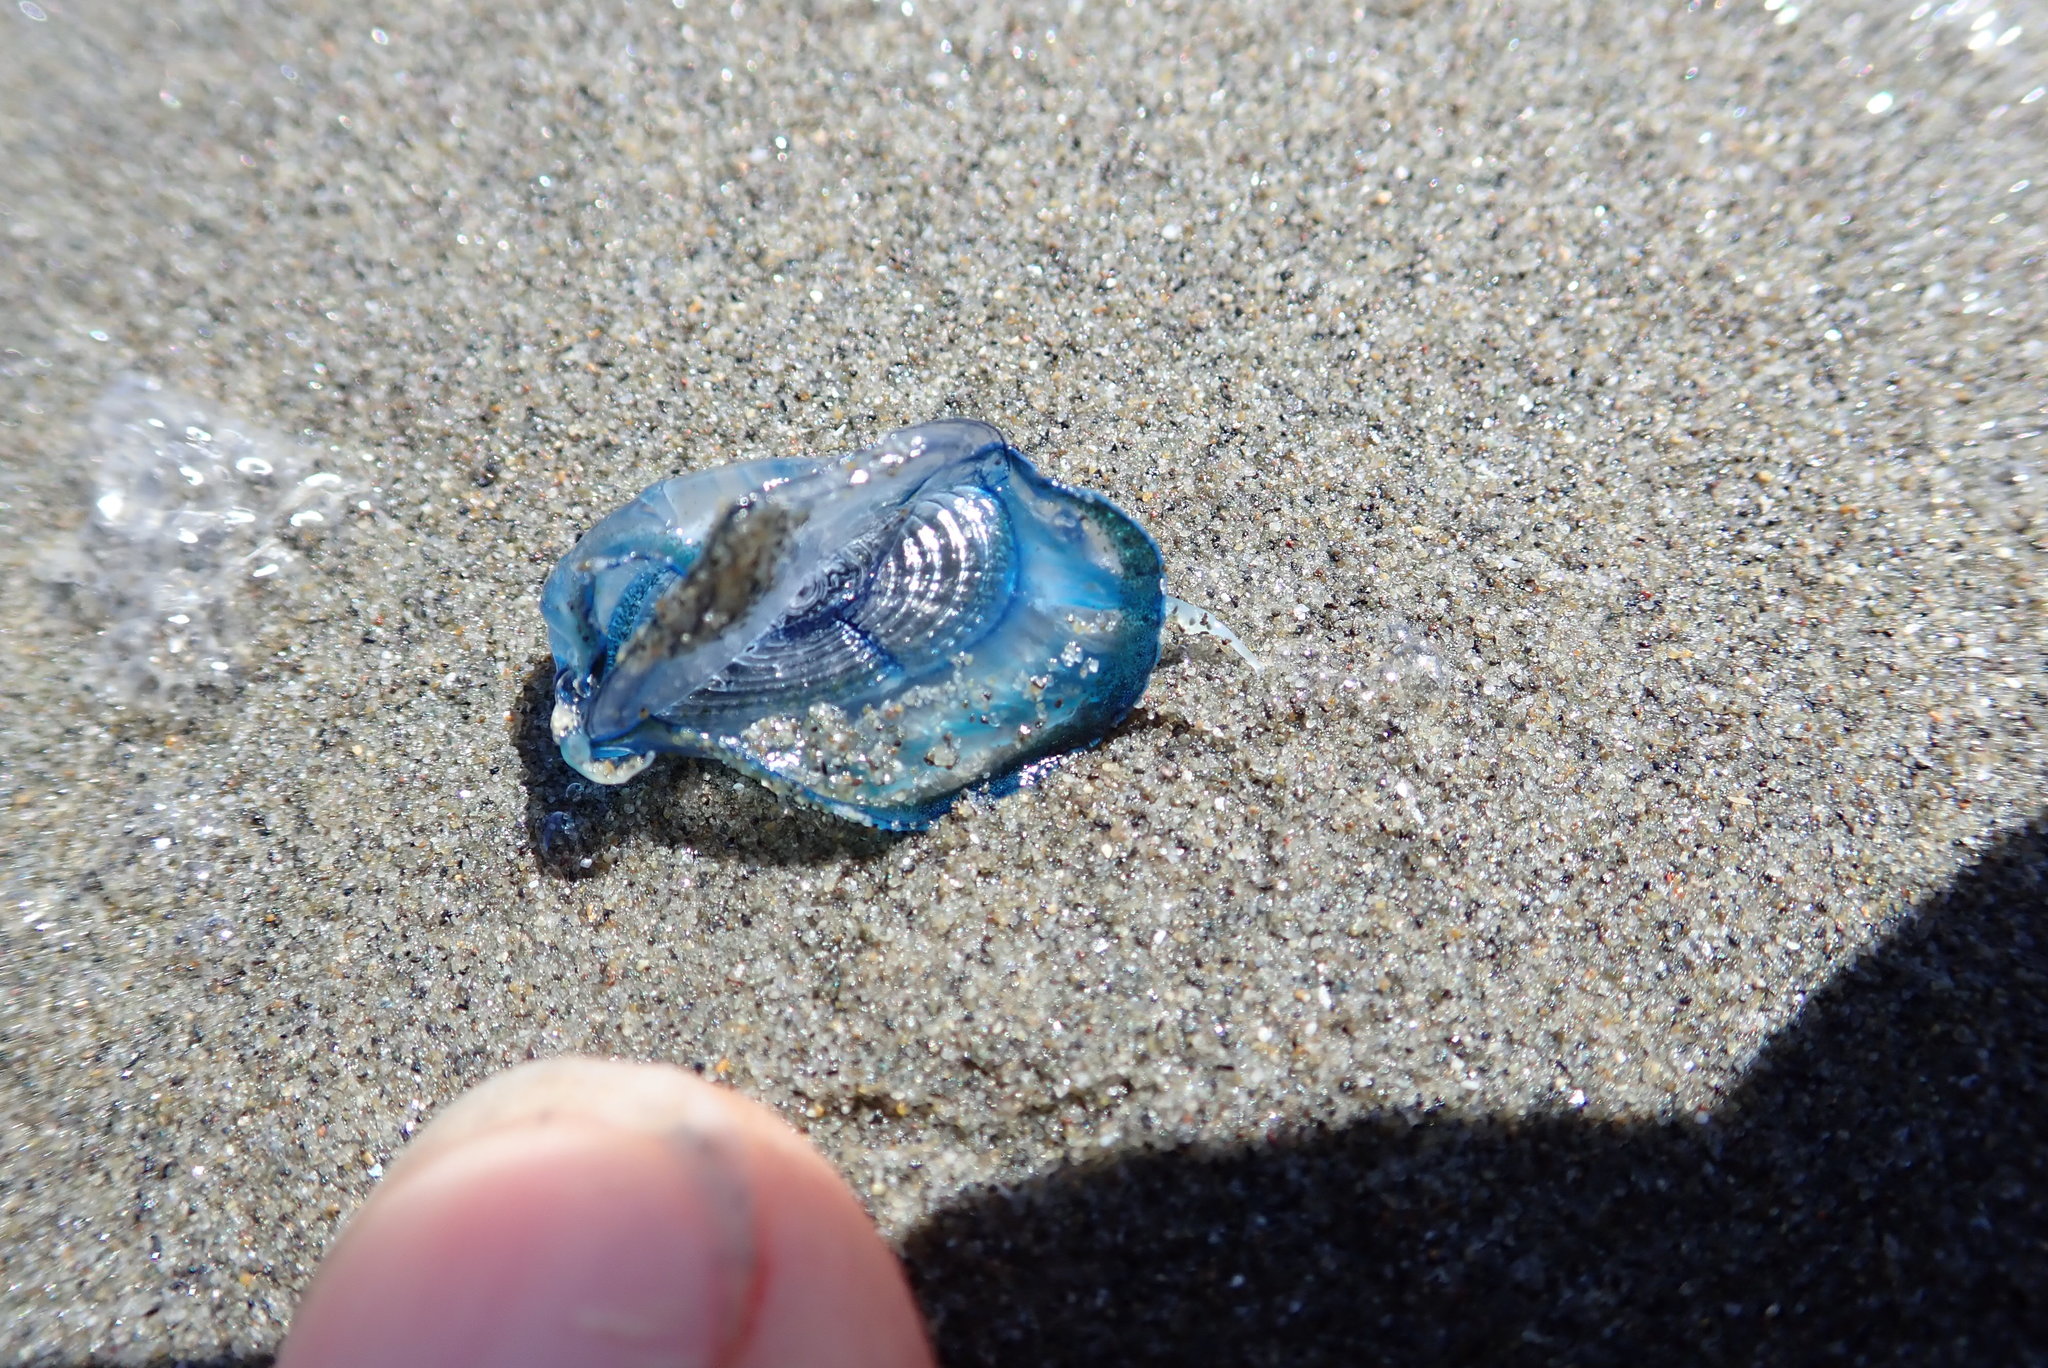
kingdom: Animalia
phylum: Cnidaria
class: Hydrozoa
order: Anthoathecata
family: Porpitidae
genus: Velella
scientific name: Velella velella
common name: By-the-wind-sailor
